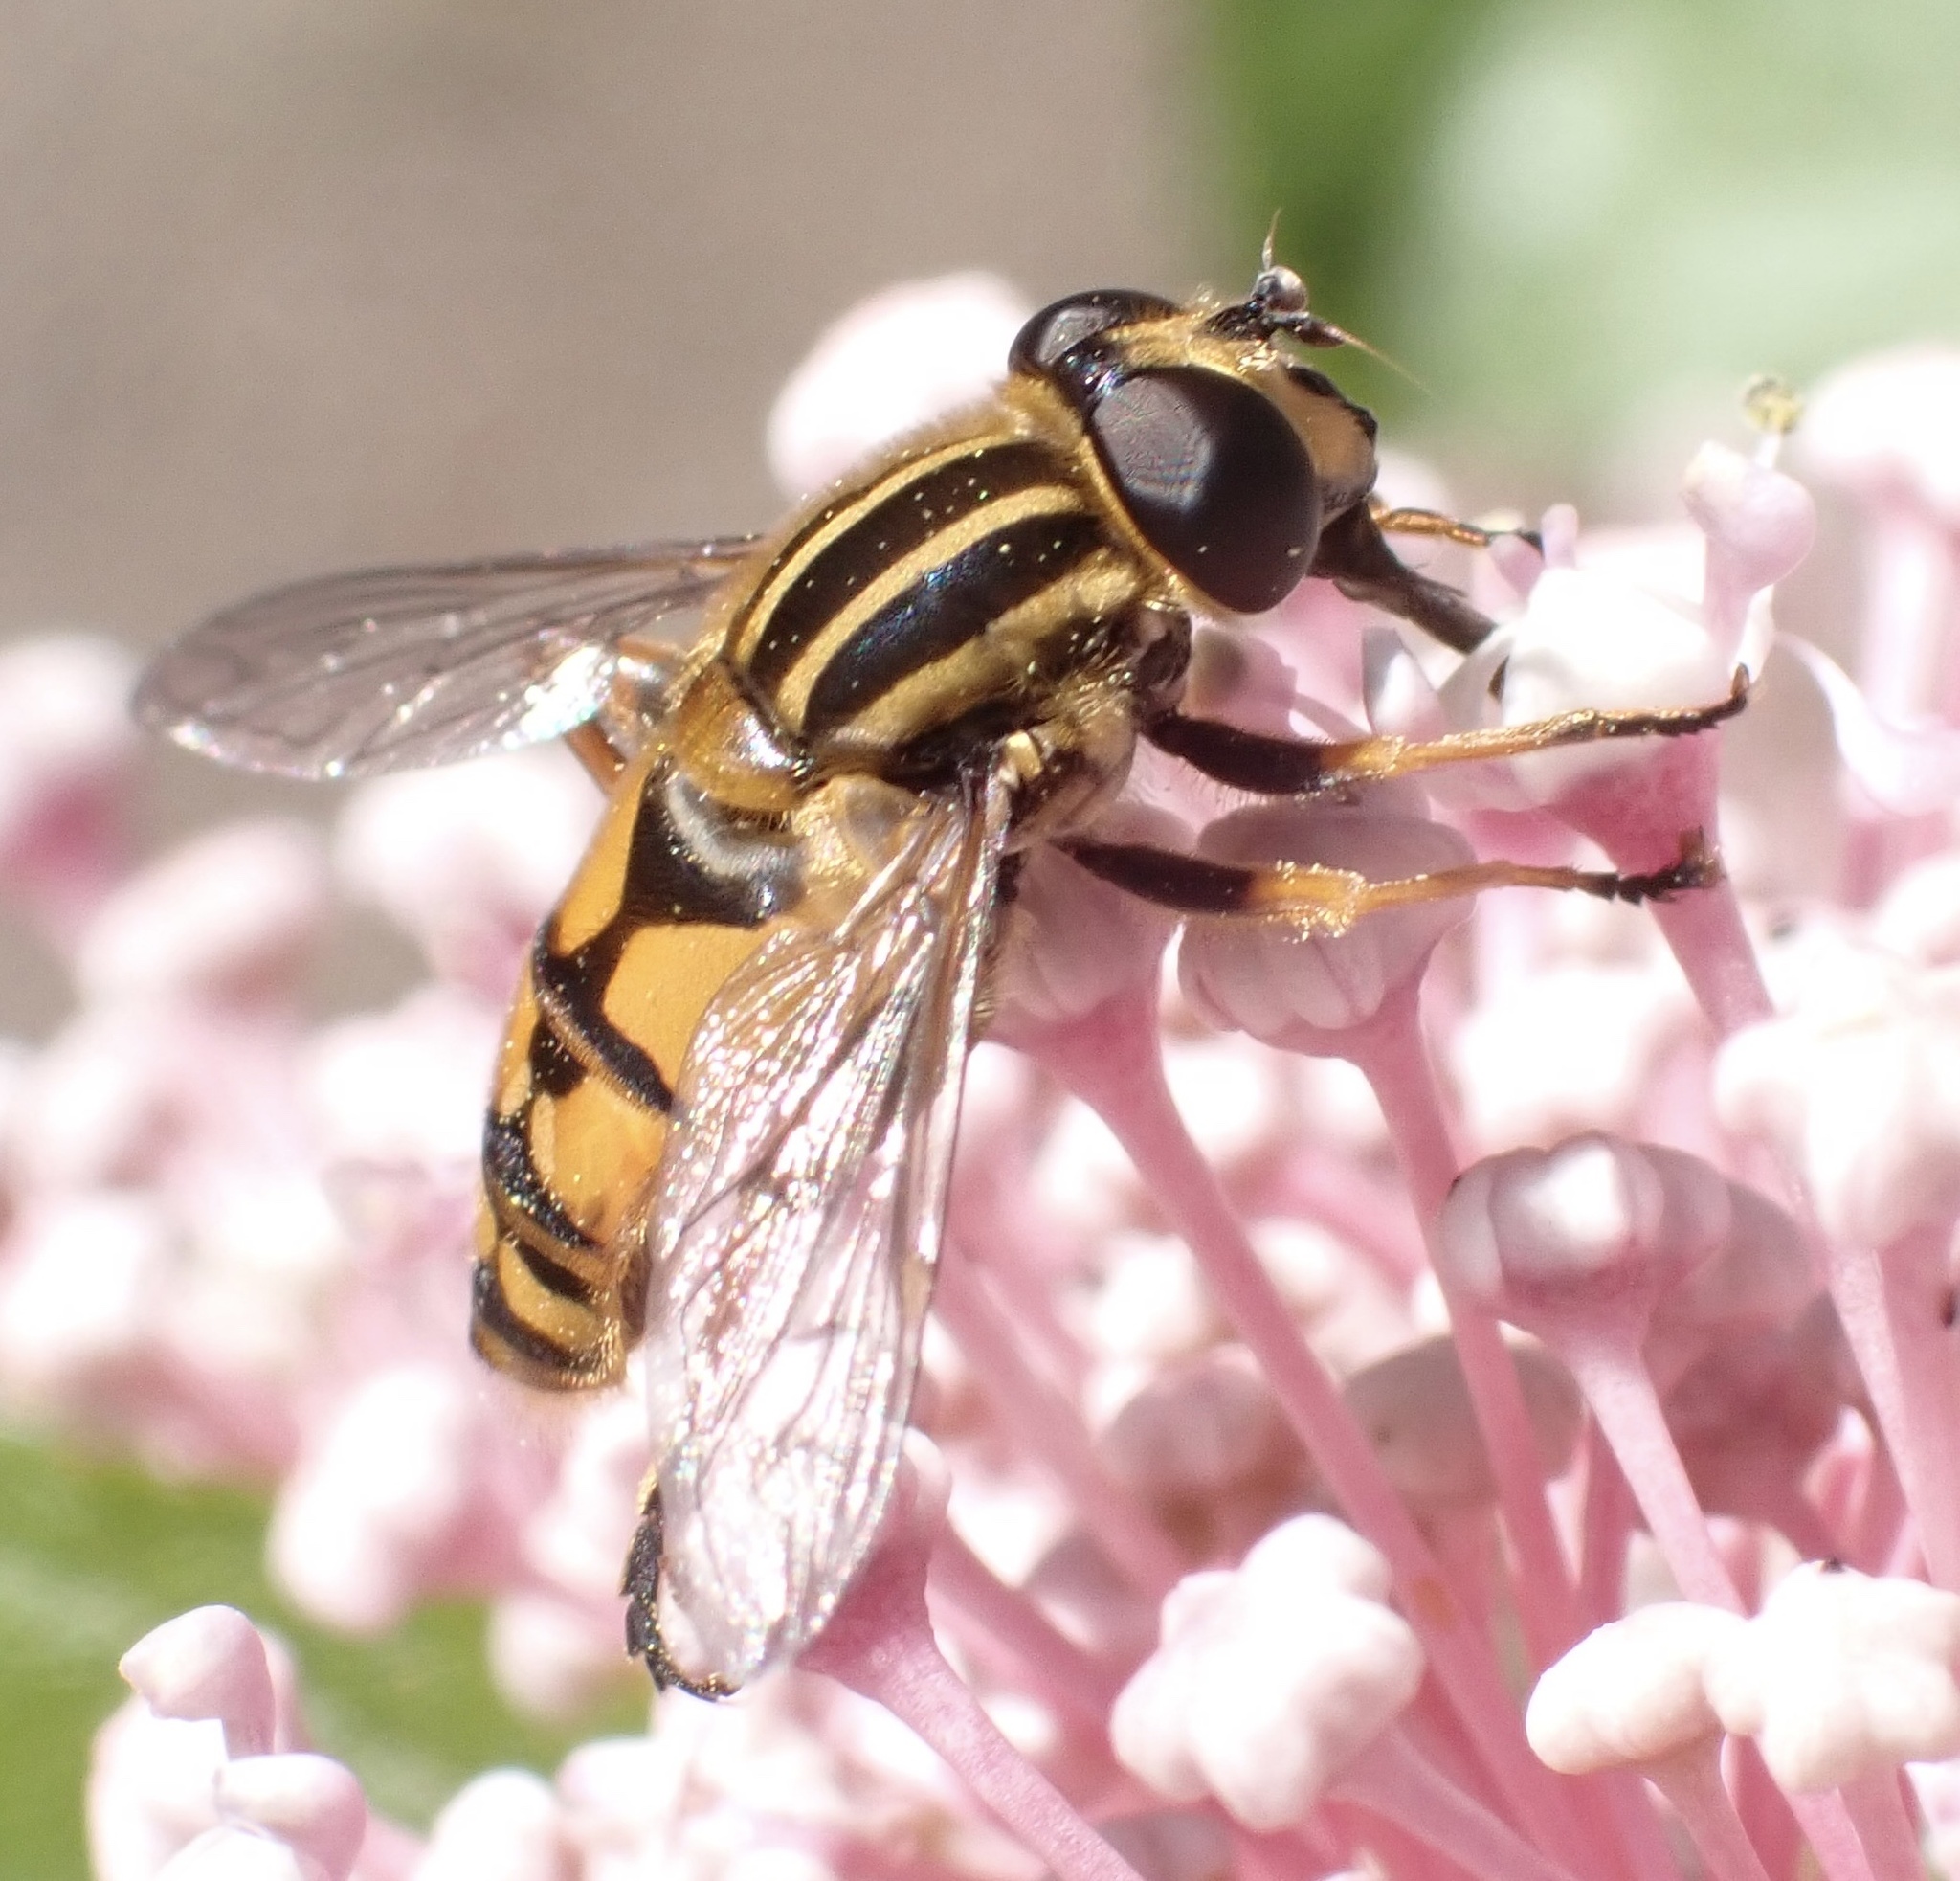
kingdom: Animalia
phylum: Arthropoda
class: Insecta
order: Diptera
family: Syrphidae
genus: Helophilus
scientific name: Helophilus pendulus
